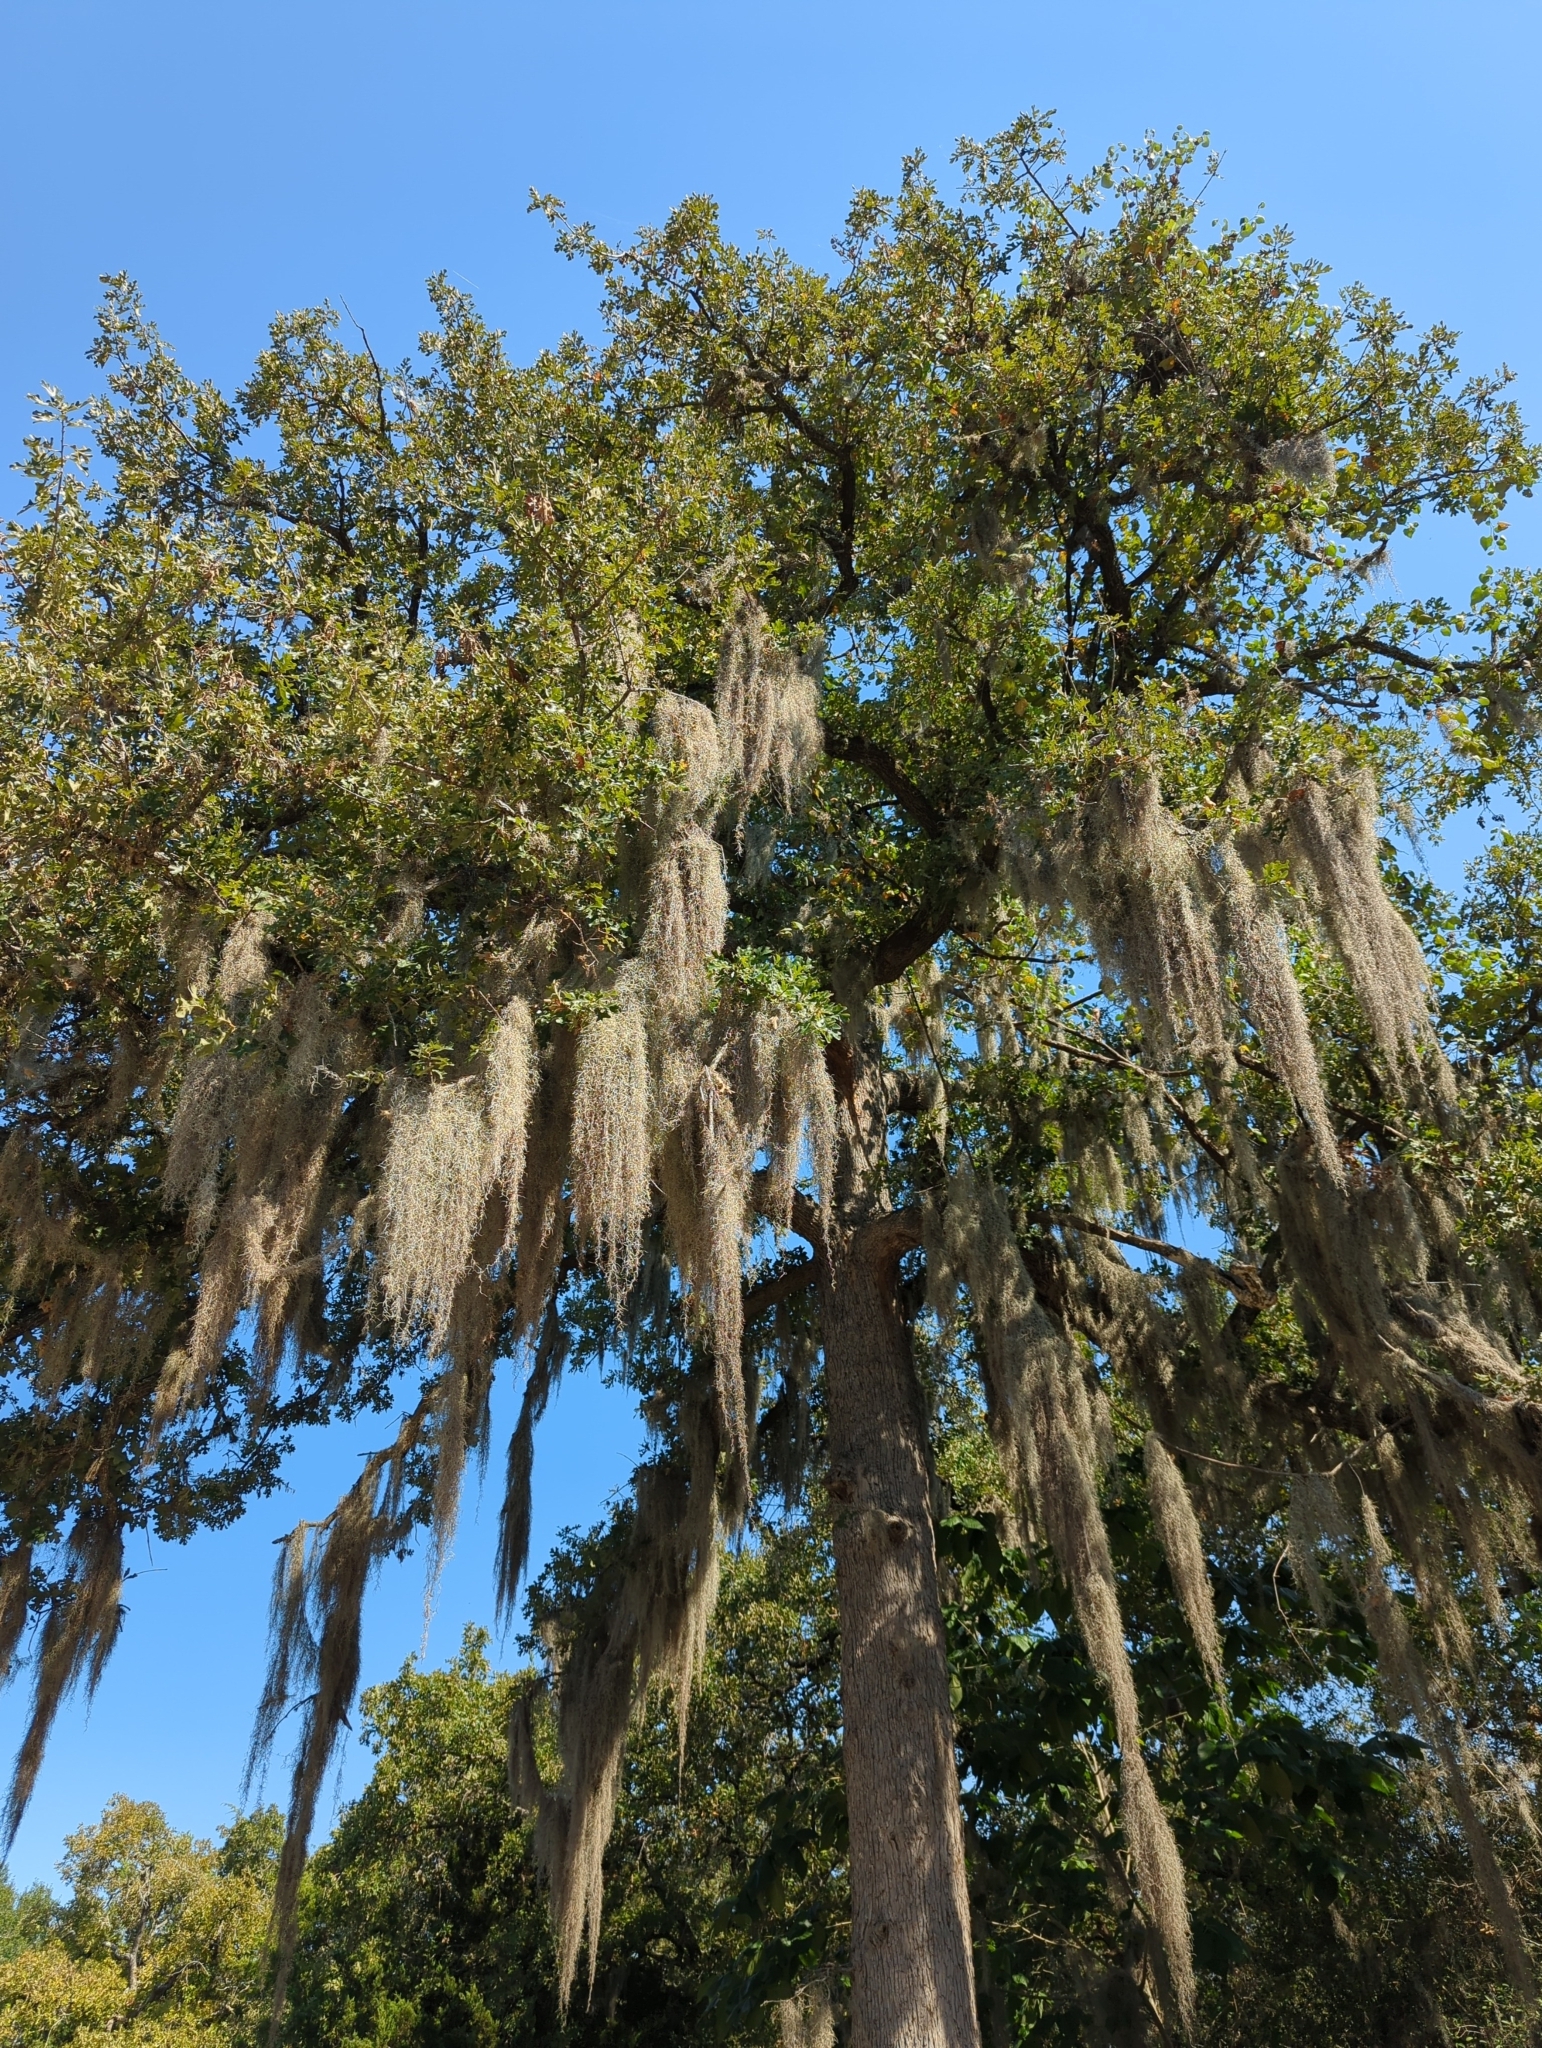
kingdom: Plantae
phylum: Tracheophyta
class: Liliopsida
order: Poales
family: Bromeliaceae
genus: Tillandsia
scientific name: Tillandsia usneoides
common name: Spanish moss
